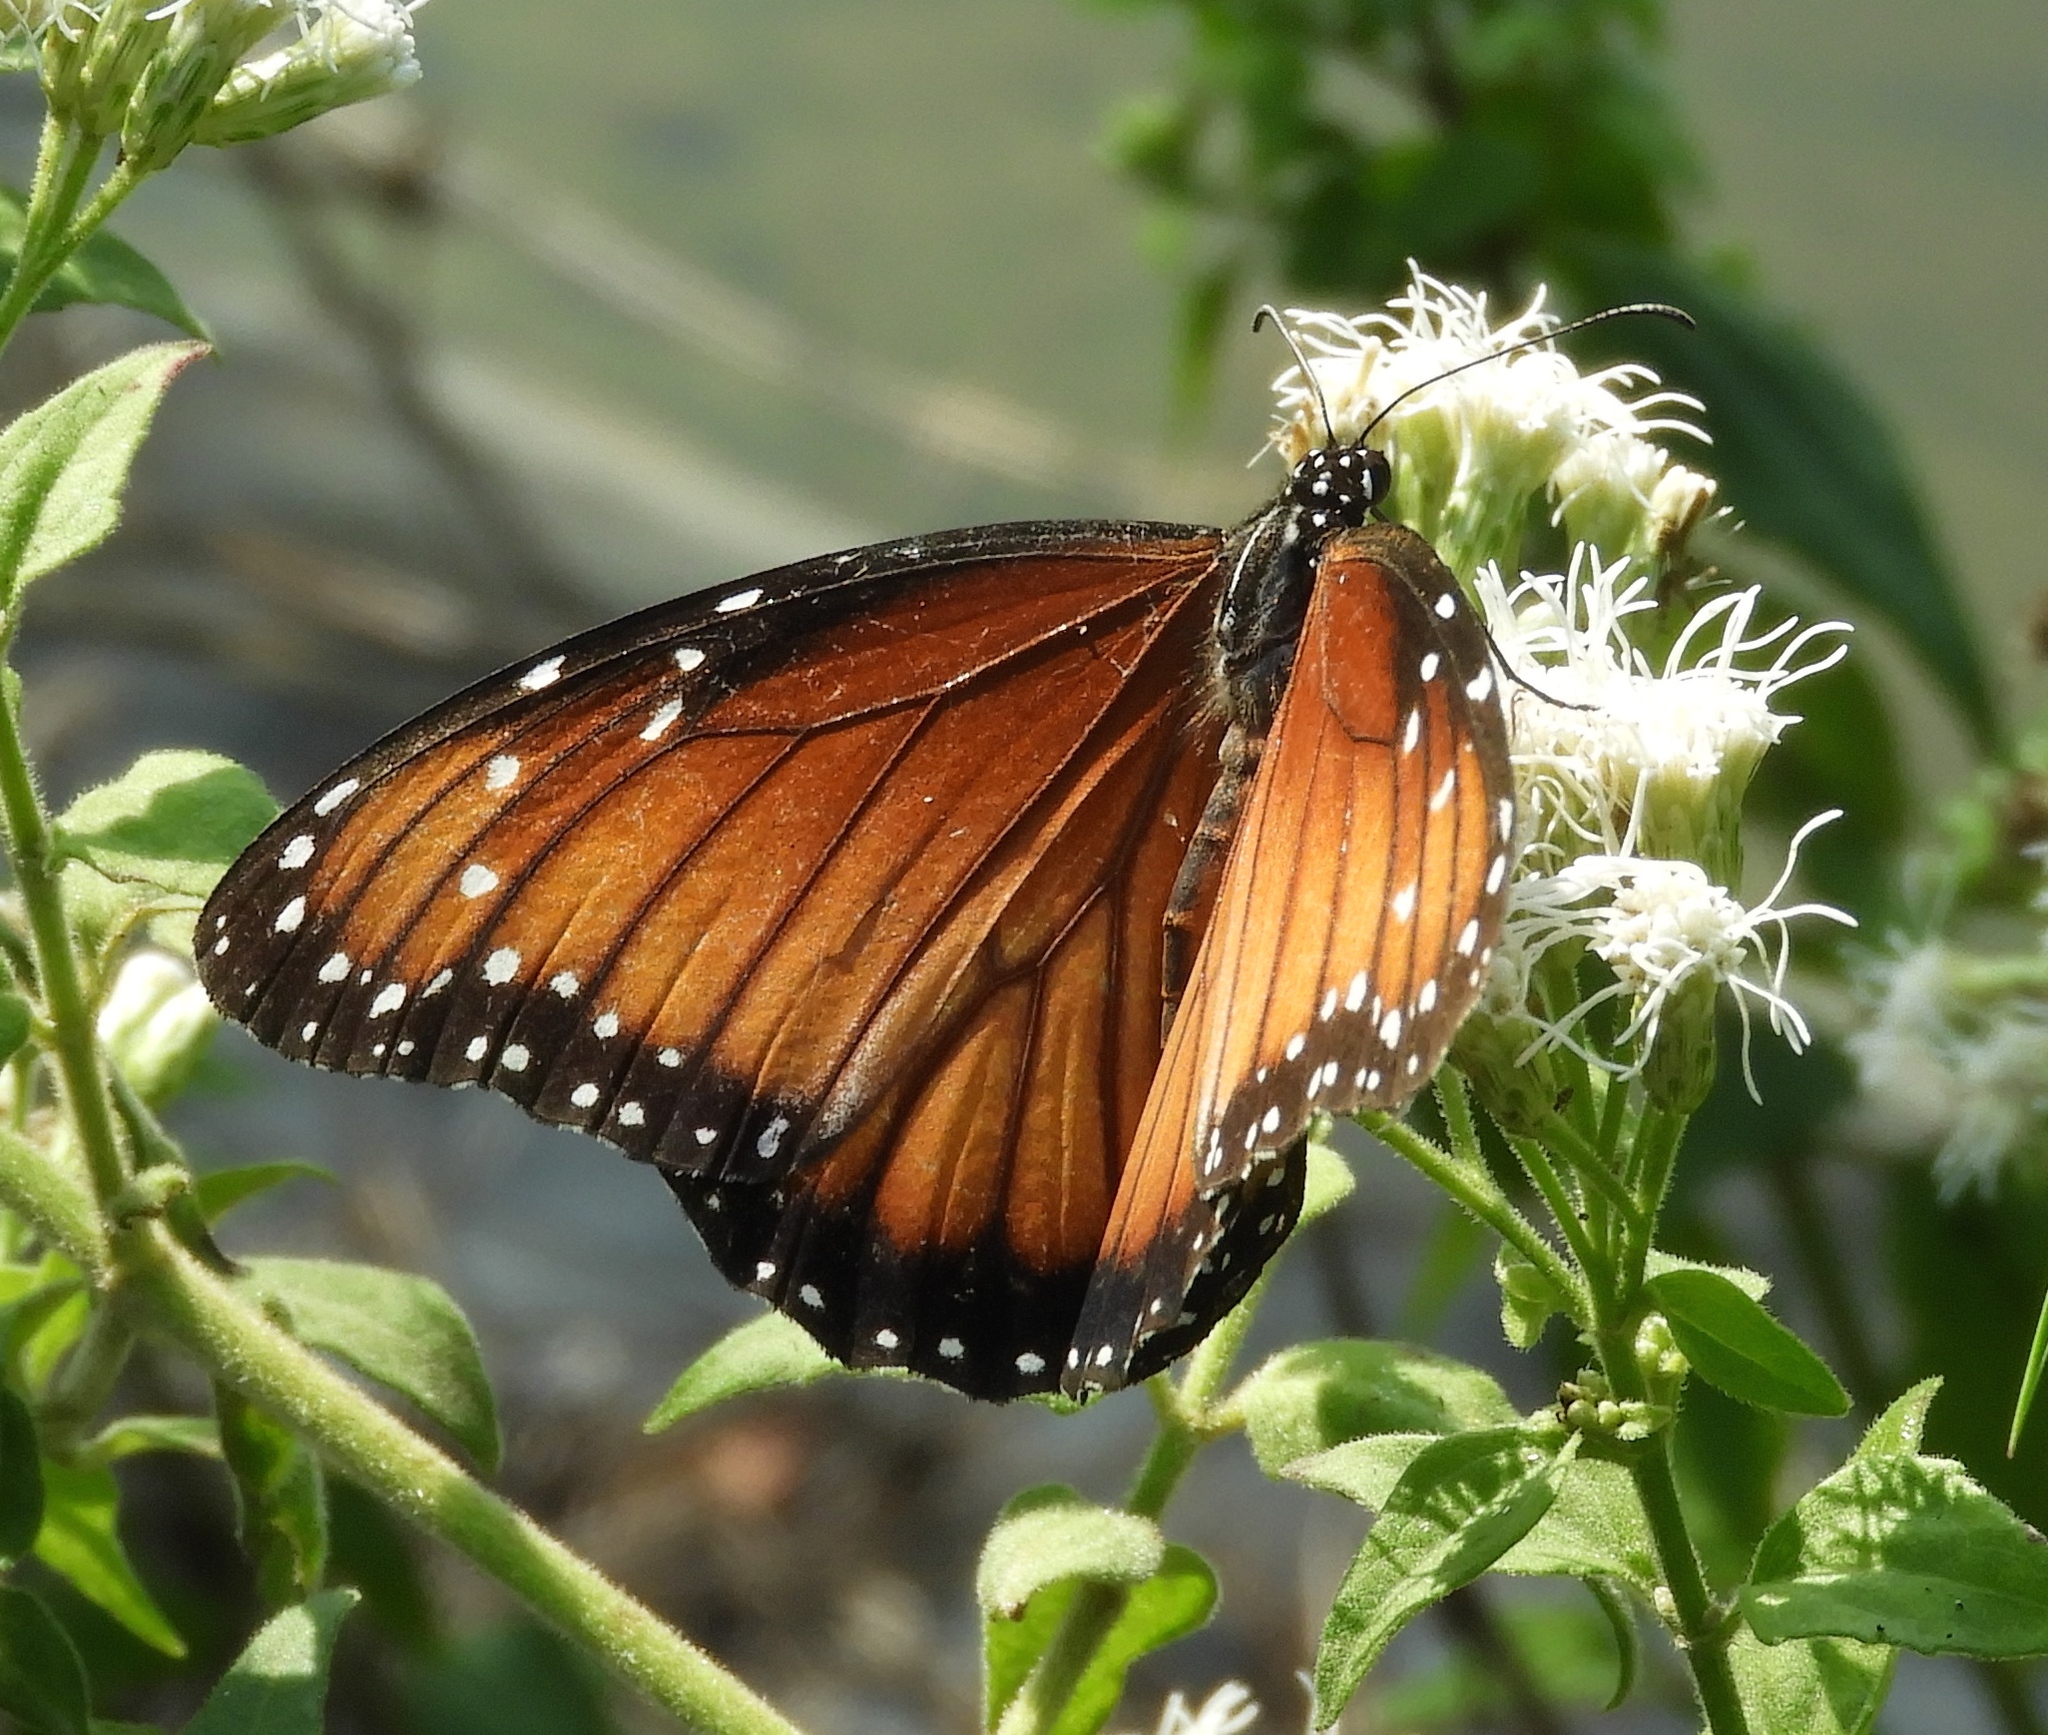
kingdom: Animalia
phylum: Arthropoda
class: Insecta
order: Lepidoptera
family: Nymphalidae
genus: Danaus
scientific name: Danaus eresimus
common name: Soldier
